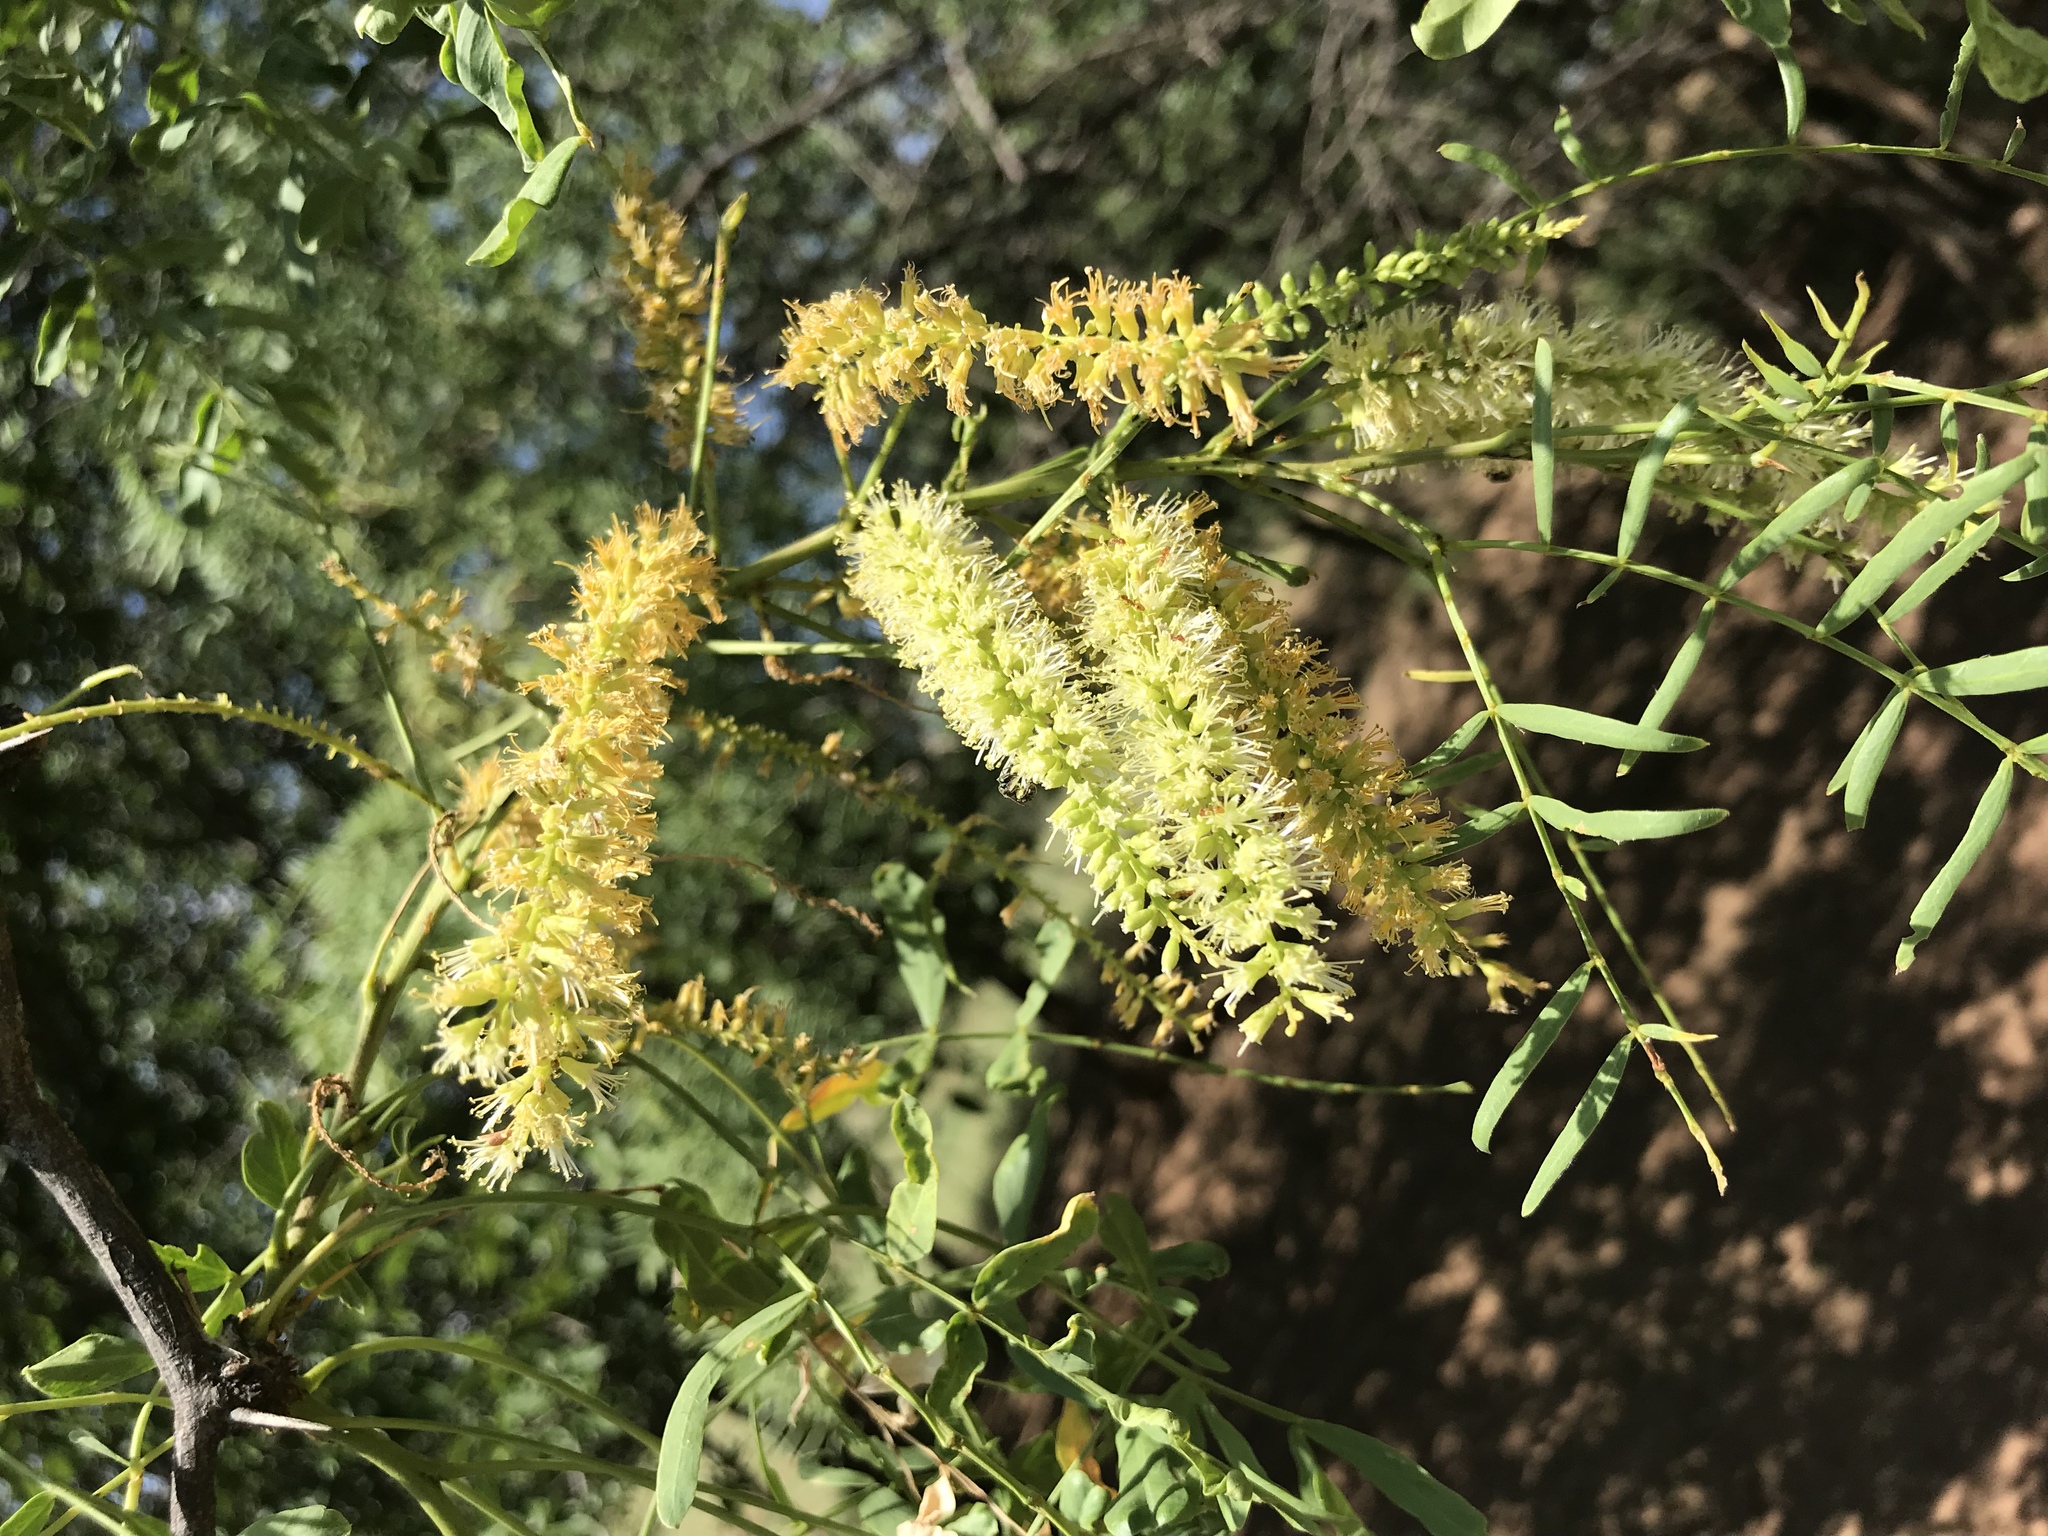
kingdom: Plantae
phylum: Tracheophyta
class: Magnoliopsida
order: Fabales
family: Fabaceae
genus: Prosopis
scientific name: Prosopis glandulosa
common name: Honey mesquite
